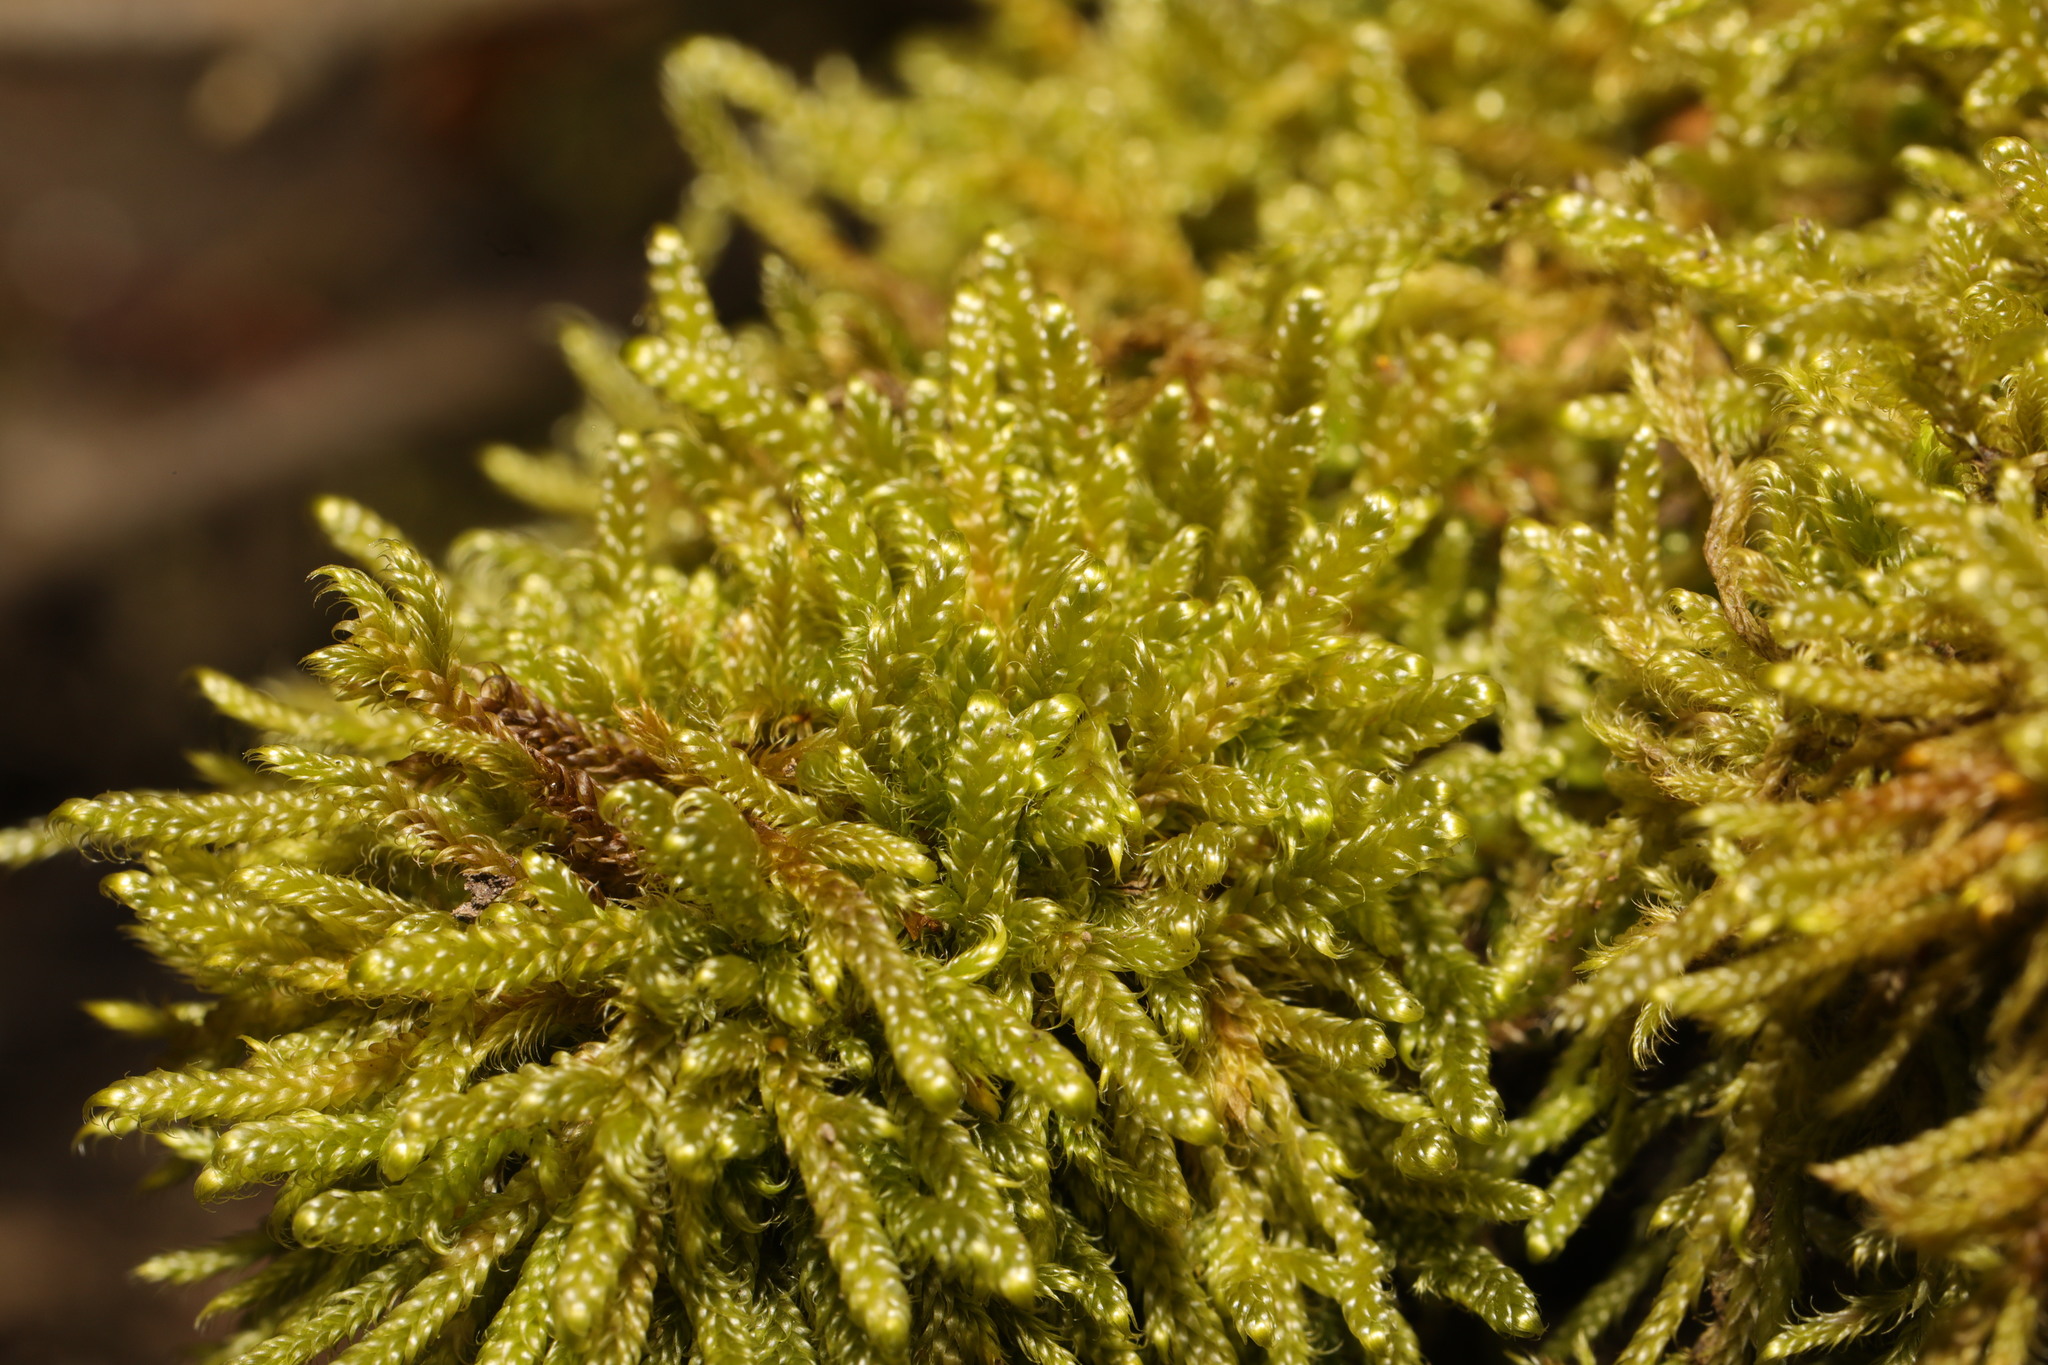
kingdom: Plantae
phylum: Bryophyta
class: Bryopsida
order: Hypnales
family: Hypnaceae
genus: Hypnum
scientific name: Hypnum cupressiforme
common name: Cypress-leaved plait-moss
